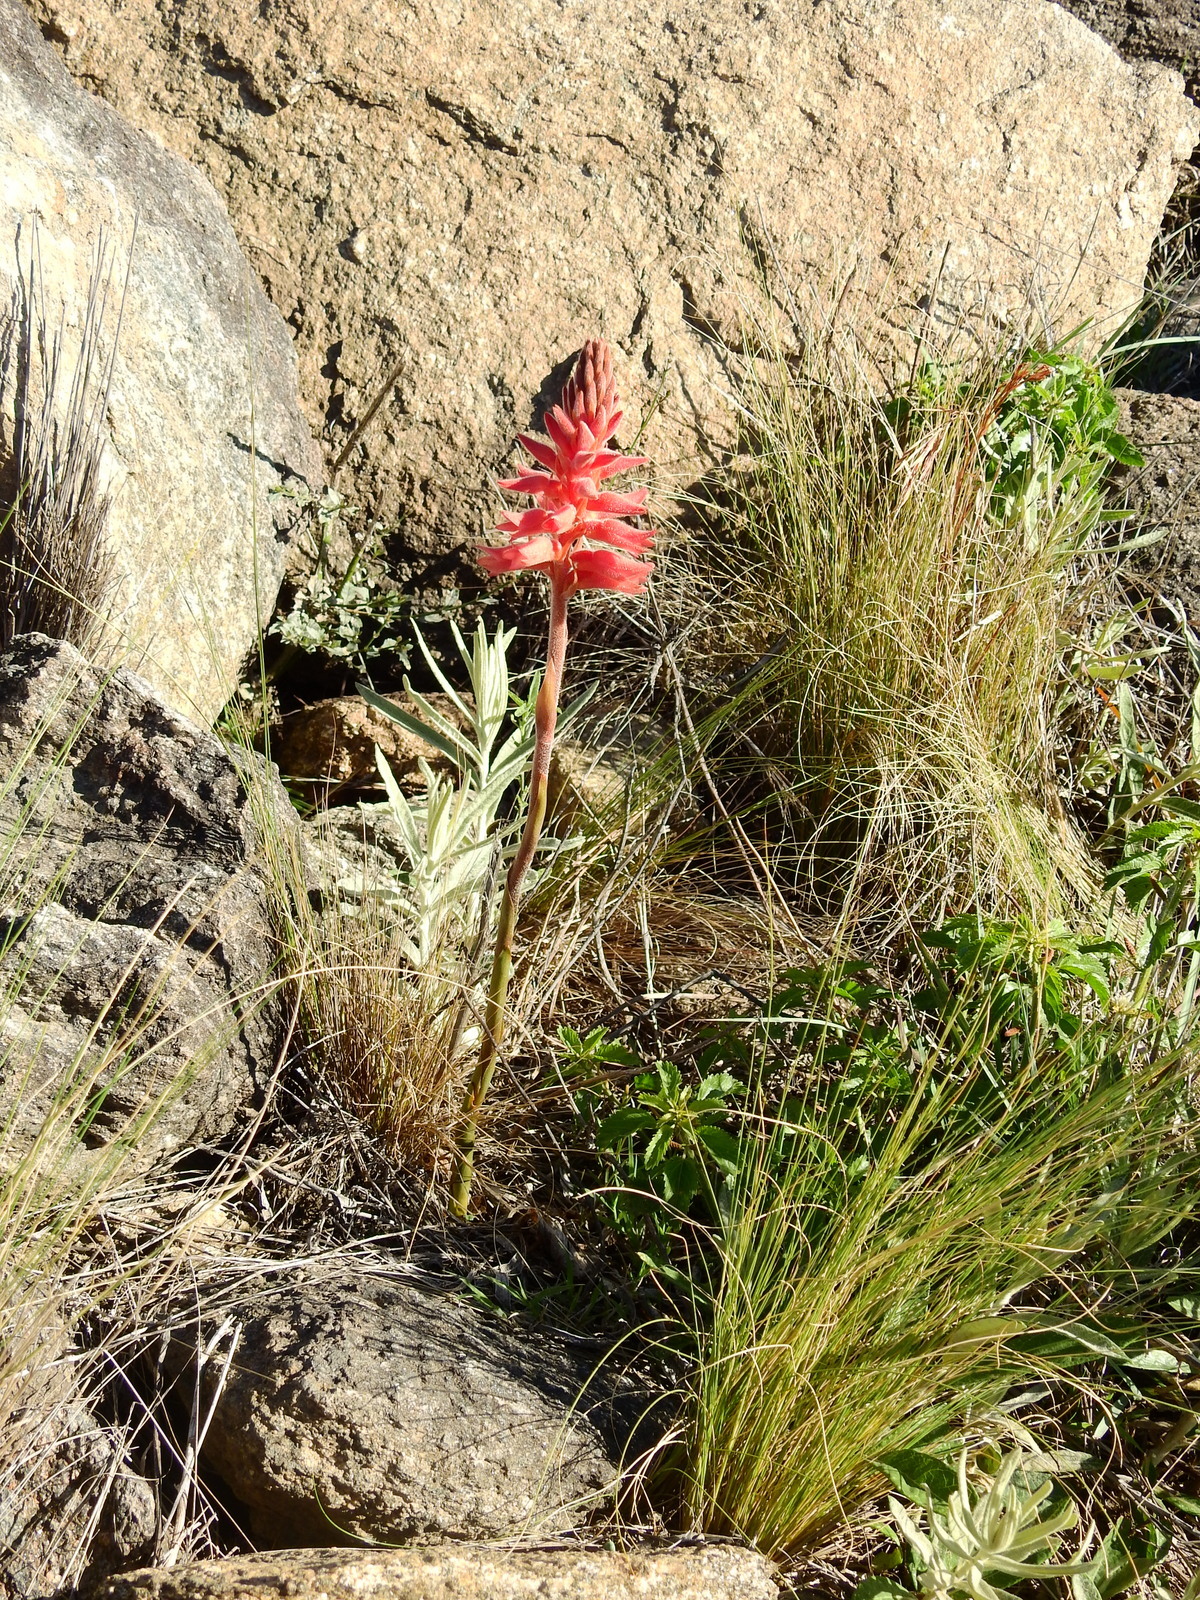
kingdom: Plantae
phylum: Tracheophyta
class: Liliopsida
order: Asparagales
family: Orchidaceae
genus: Sacoila
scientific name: Sacoila lanceolata
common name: Leafless beaked ladiestresses
